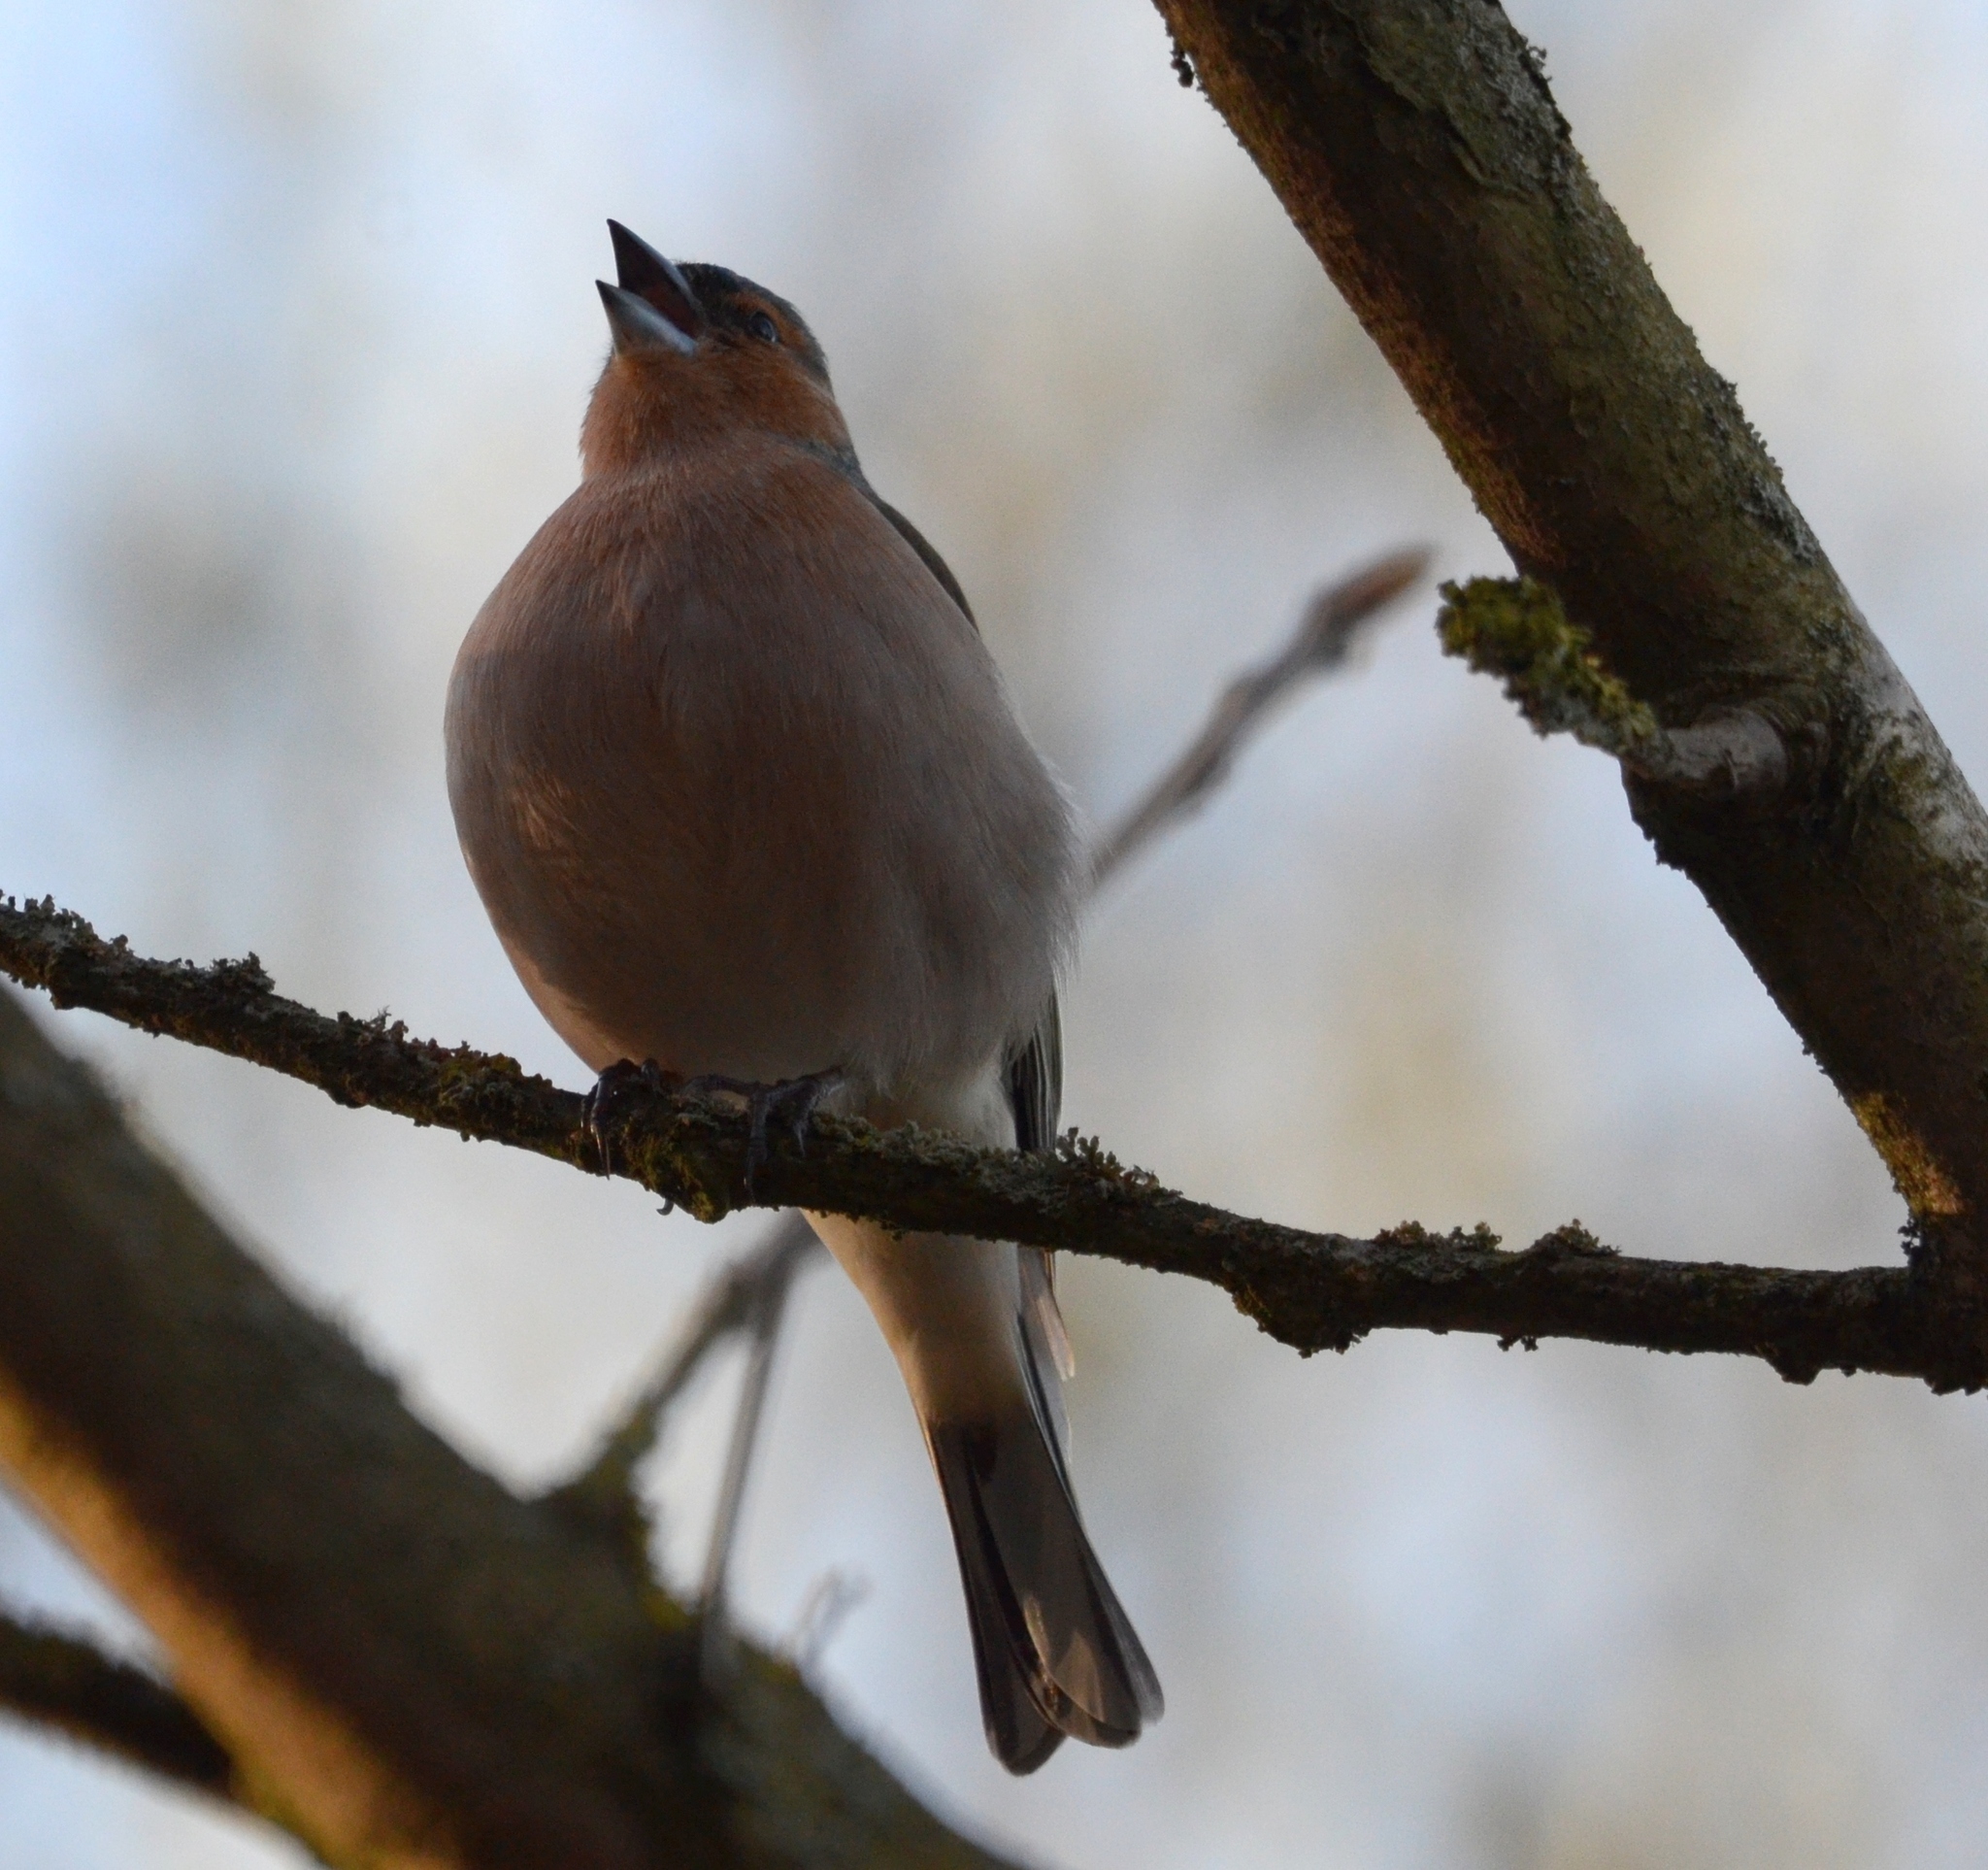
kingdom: Animalia
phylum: Chordata
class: Aves
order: Passeriformes
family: Fringillidae
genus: Fringilla
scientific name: Fringilla coelebs
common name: Common chaffinch
